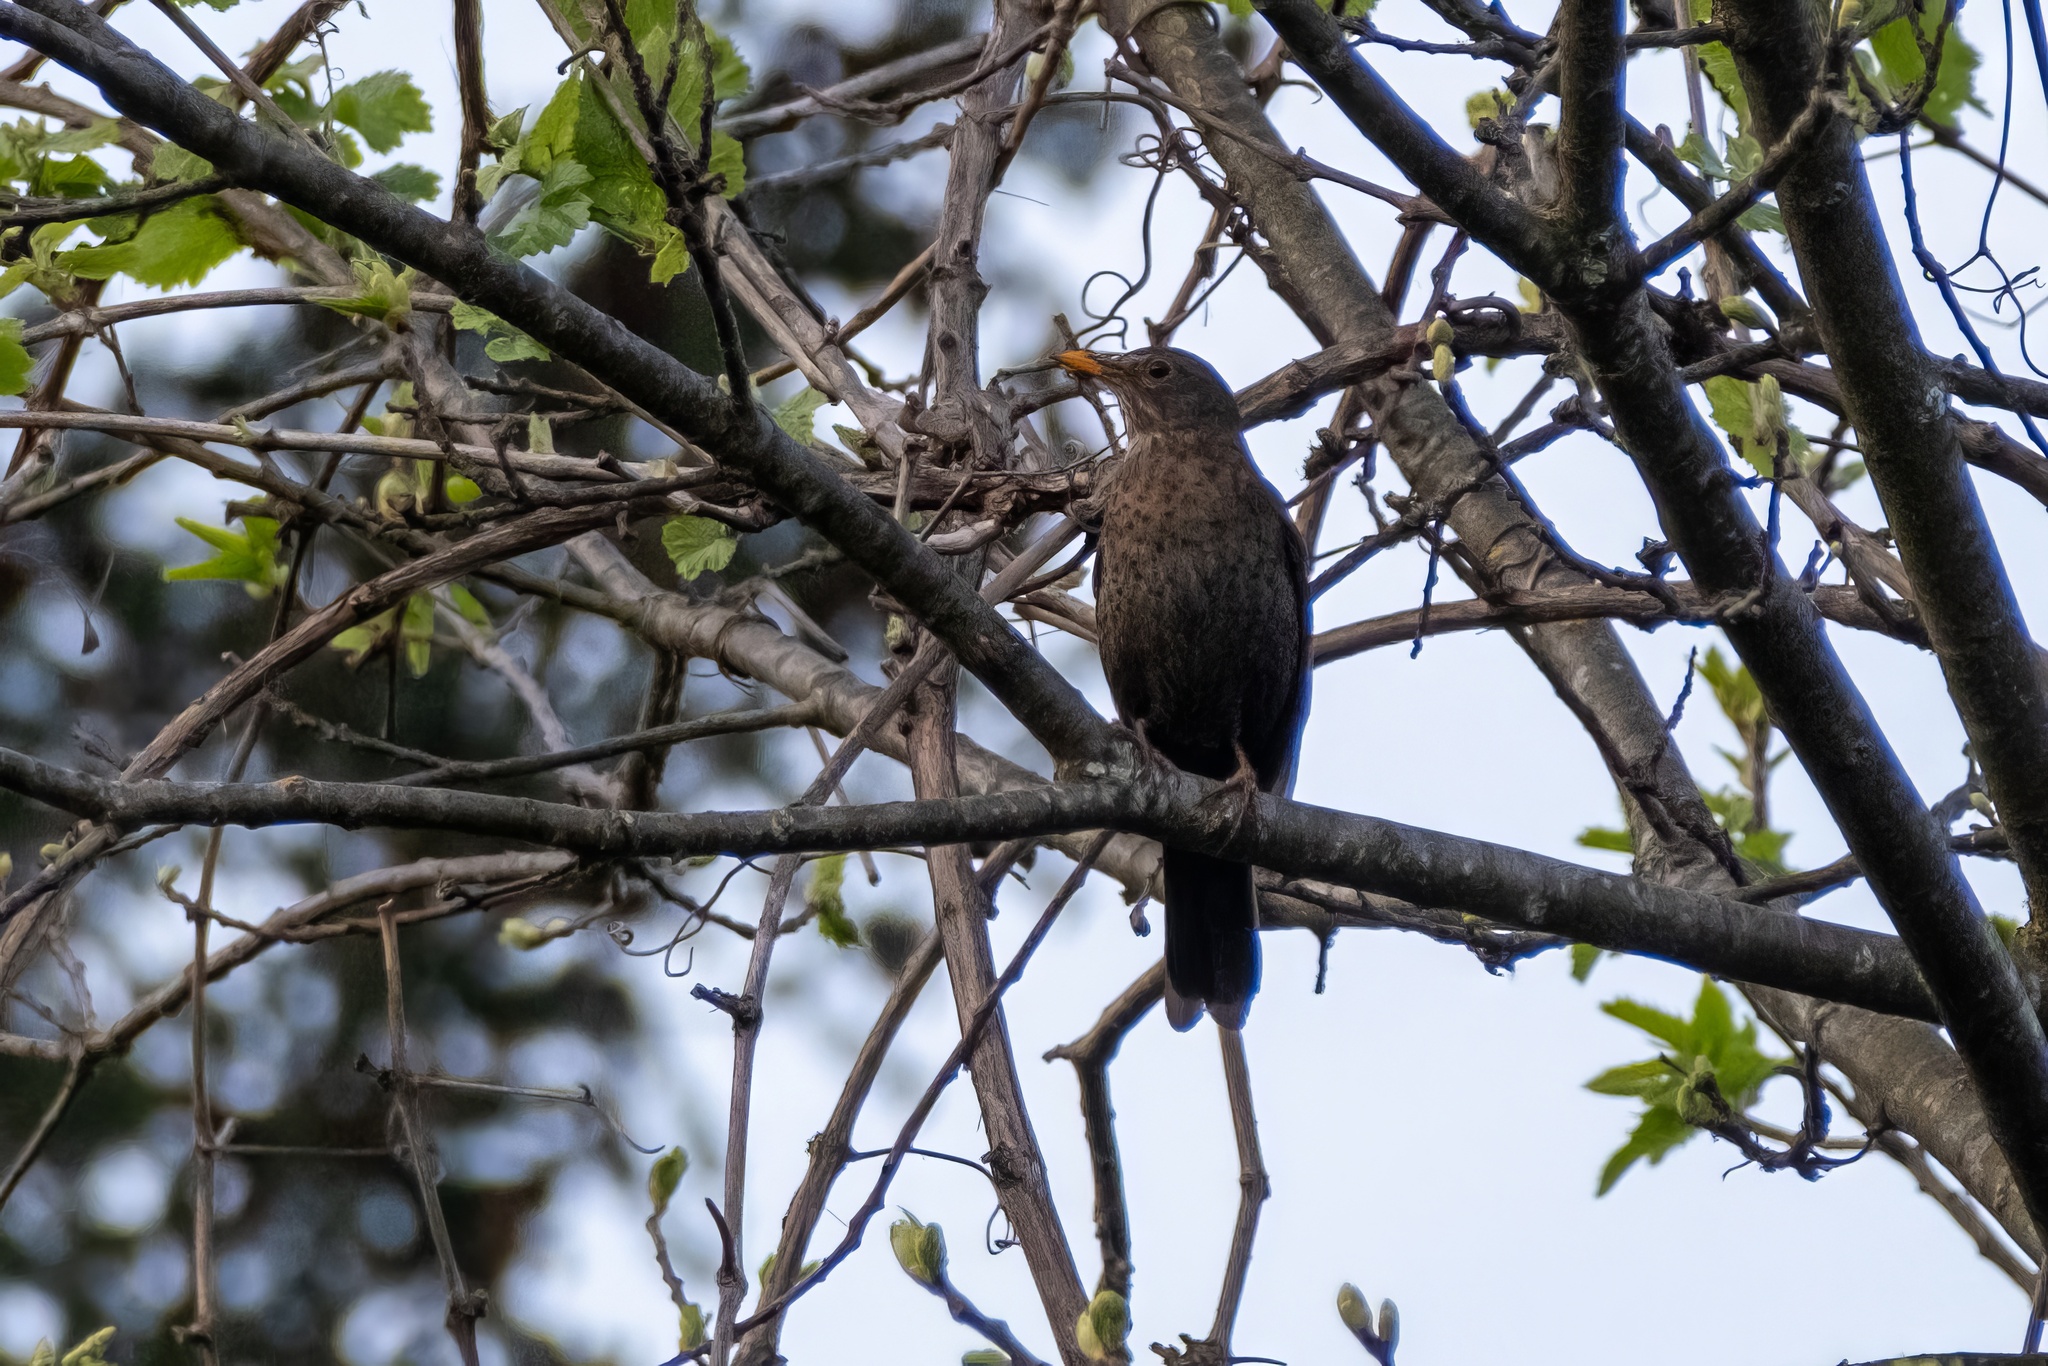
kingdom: Animalia
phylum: Chordata
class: Aves
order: Passeriformes
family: Turdidae
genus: Turdus
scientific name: Turdus merula
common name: Common blackbird
